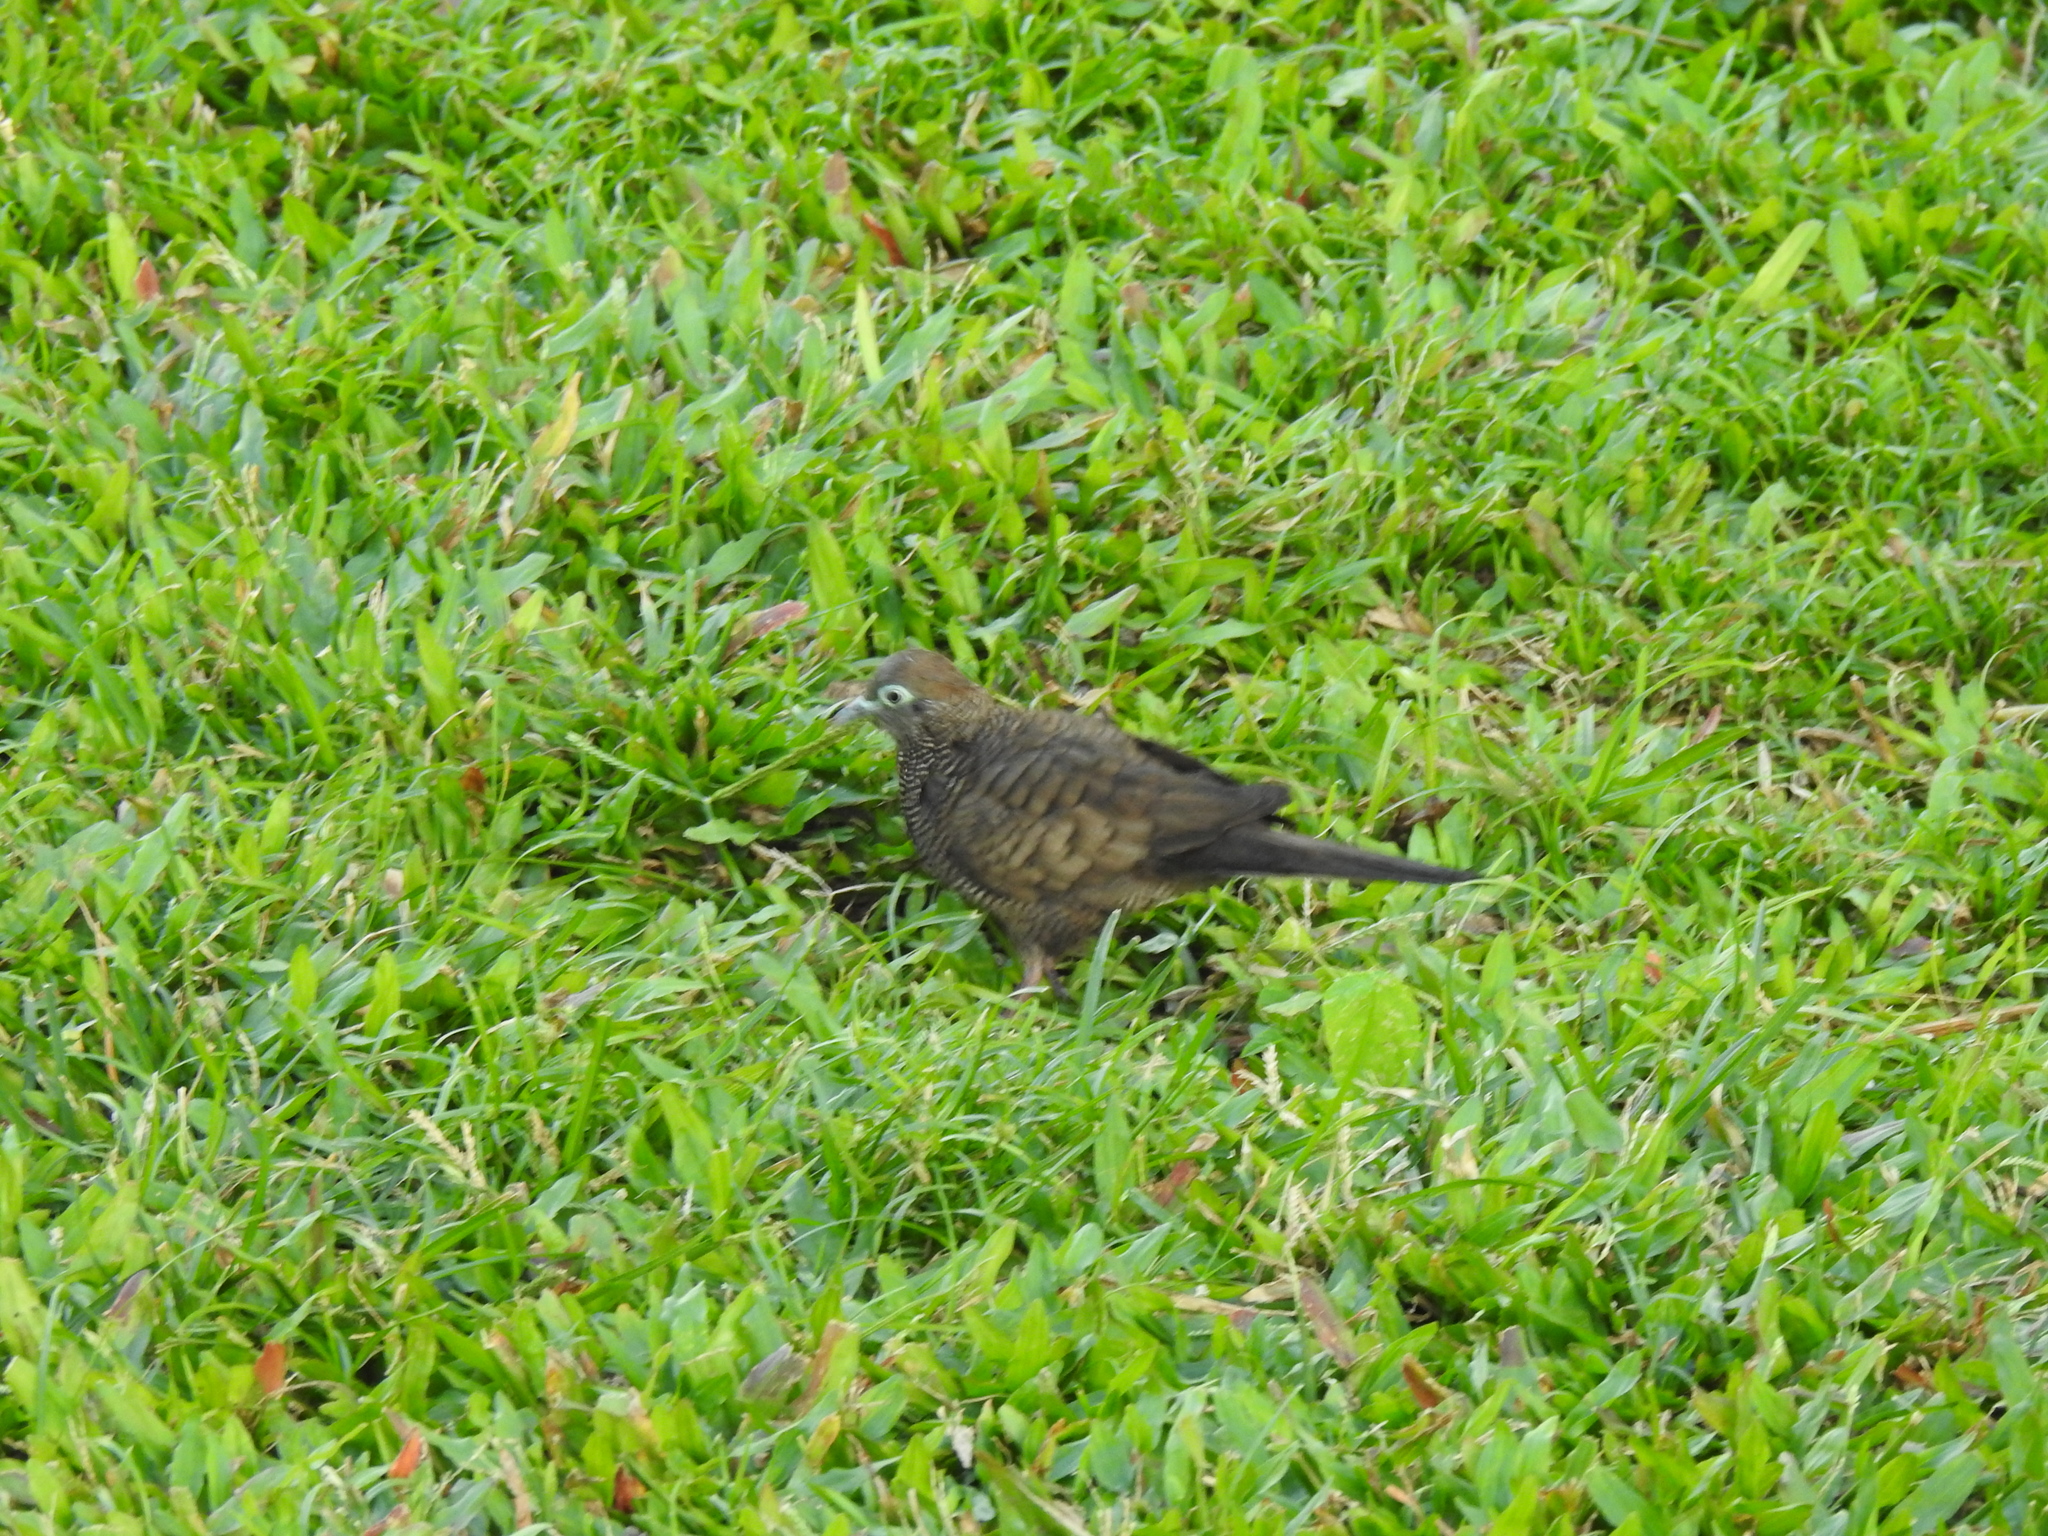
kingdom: Animalia
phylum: Chordata
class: Aves
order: Columbiformes
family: Columbidae
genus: Geopelia
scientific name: Geopelia striata
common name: Zebra dove
